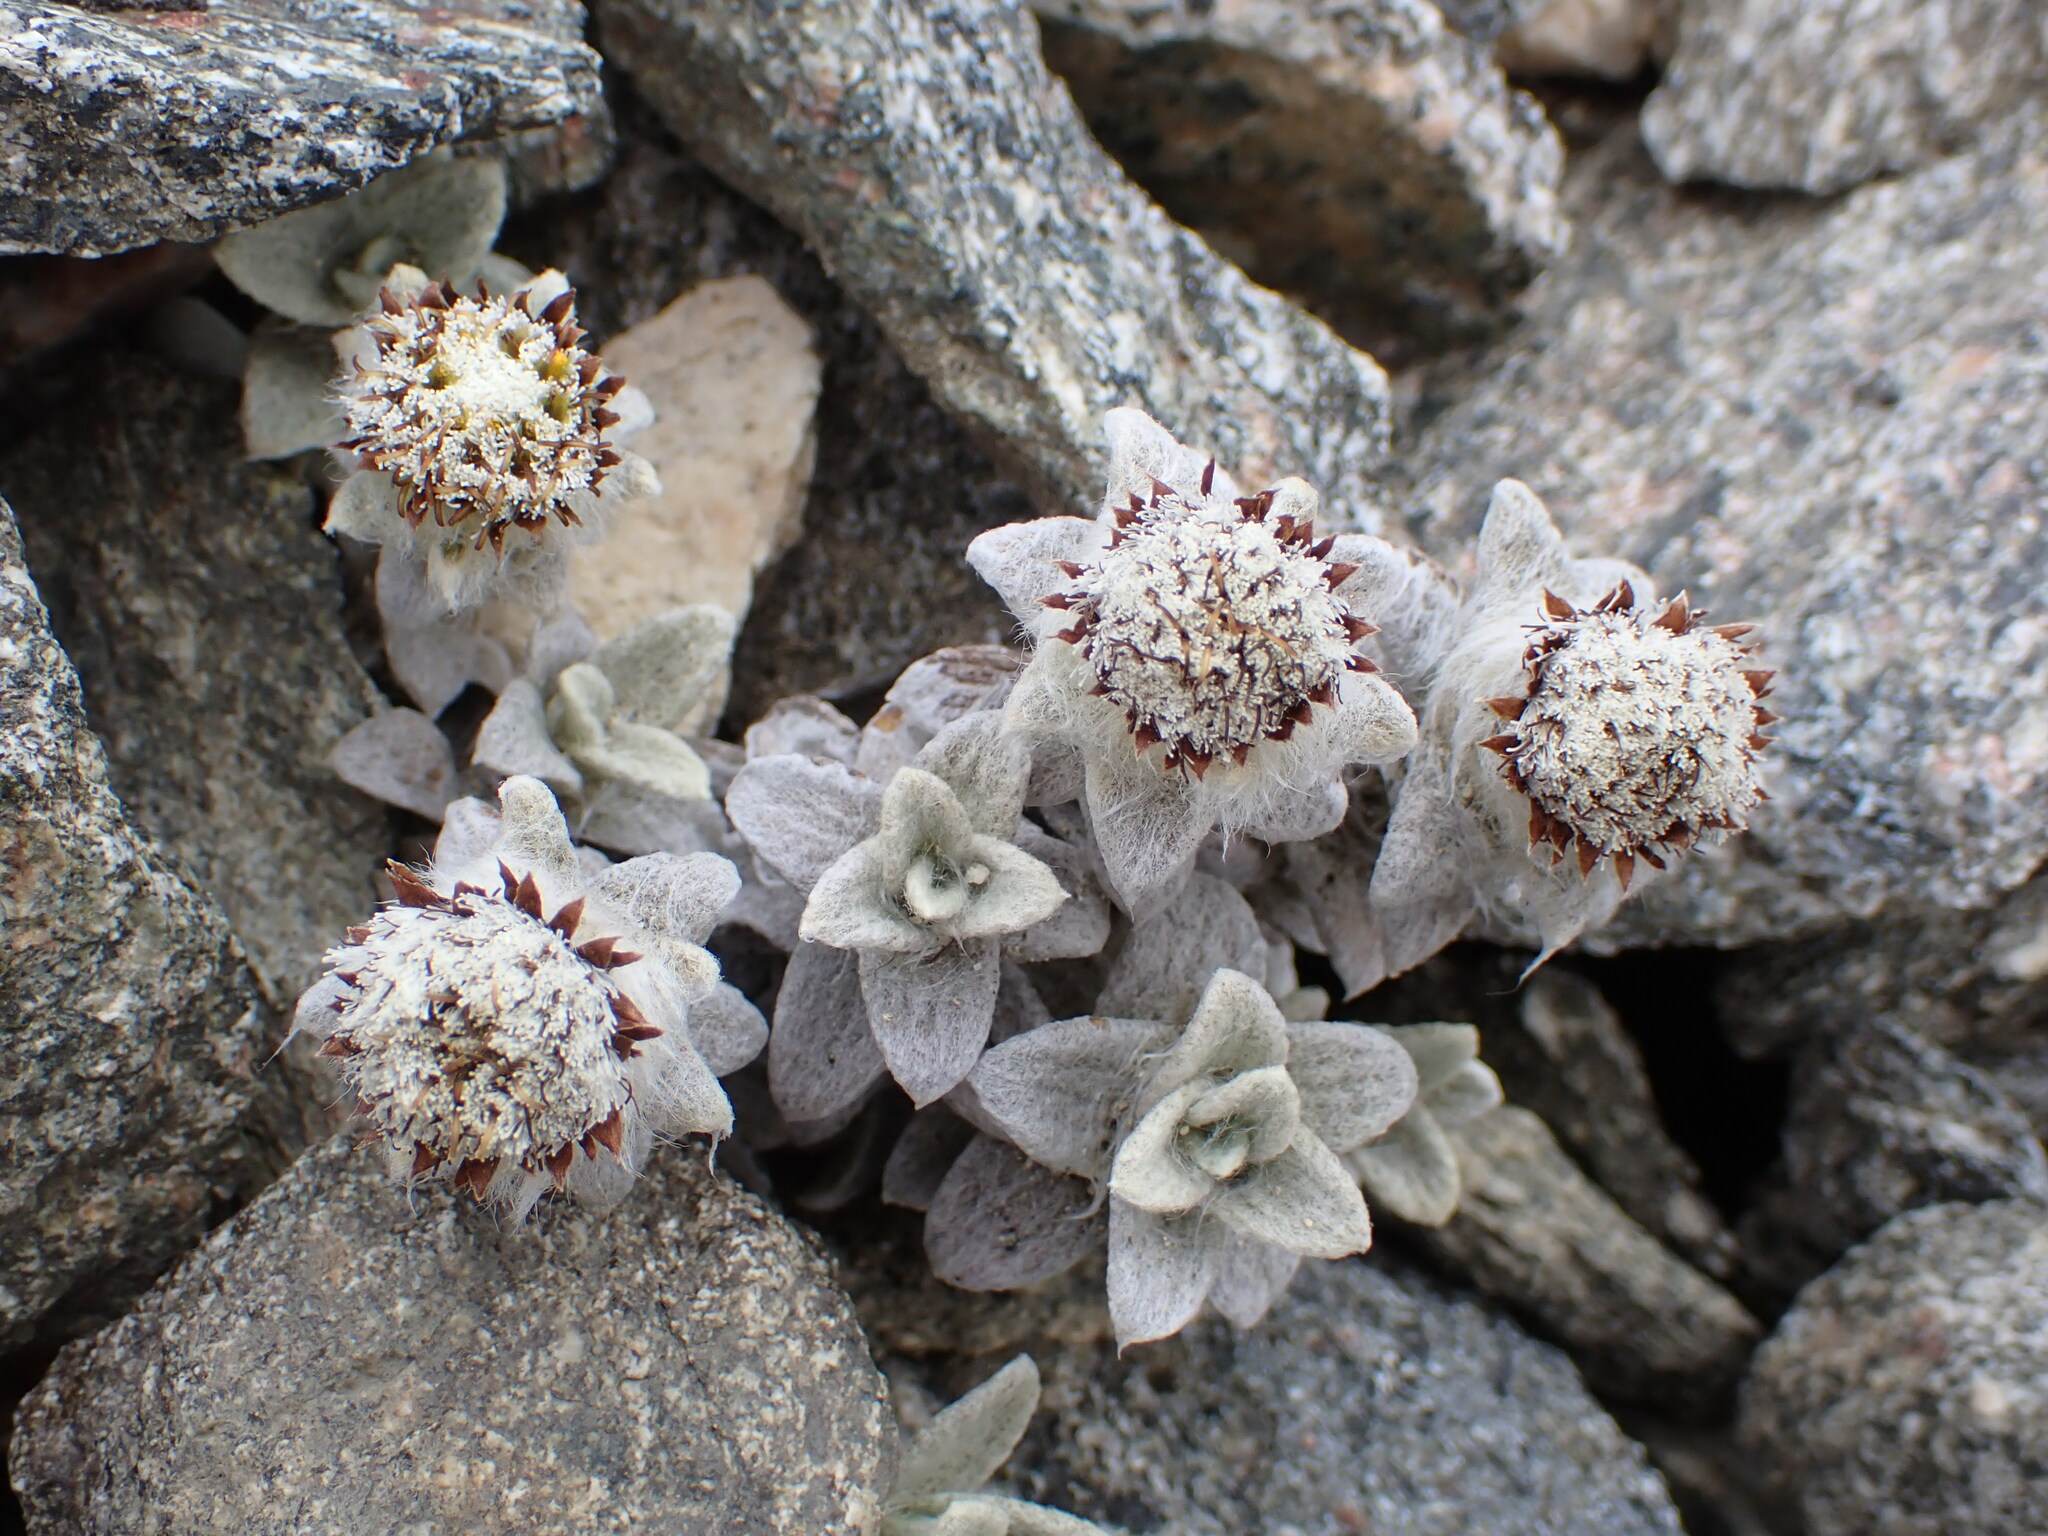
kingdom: Plantae
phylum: Tracheophyta
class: Magnoliopsida
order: Asterales
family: Asteraceae
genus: Haastia
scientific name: Haastia sinclairii
